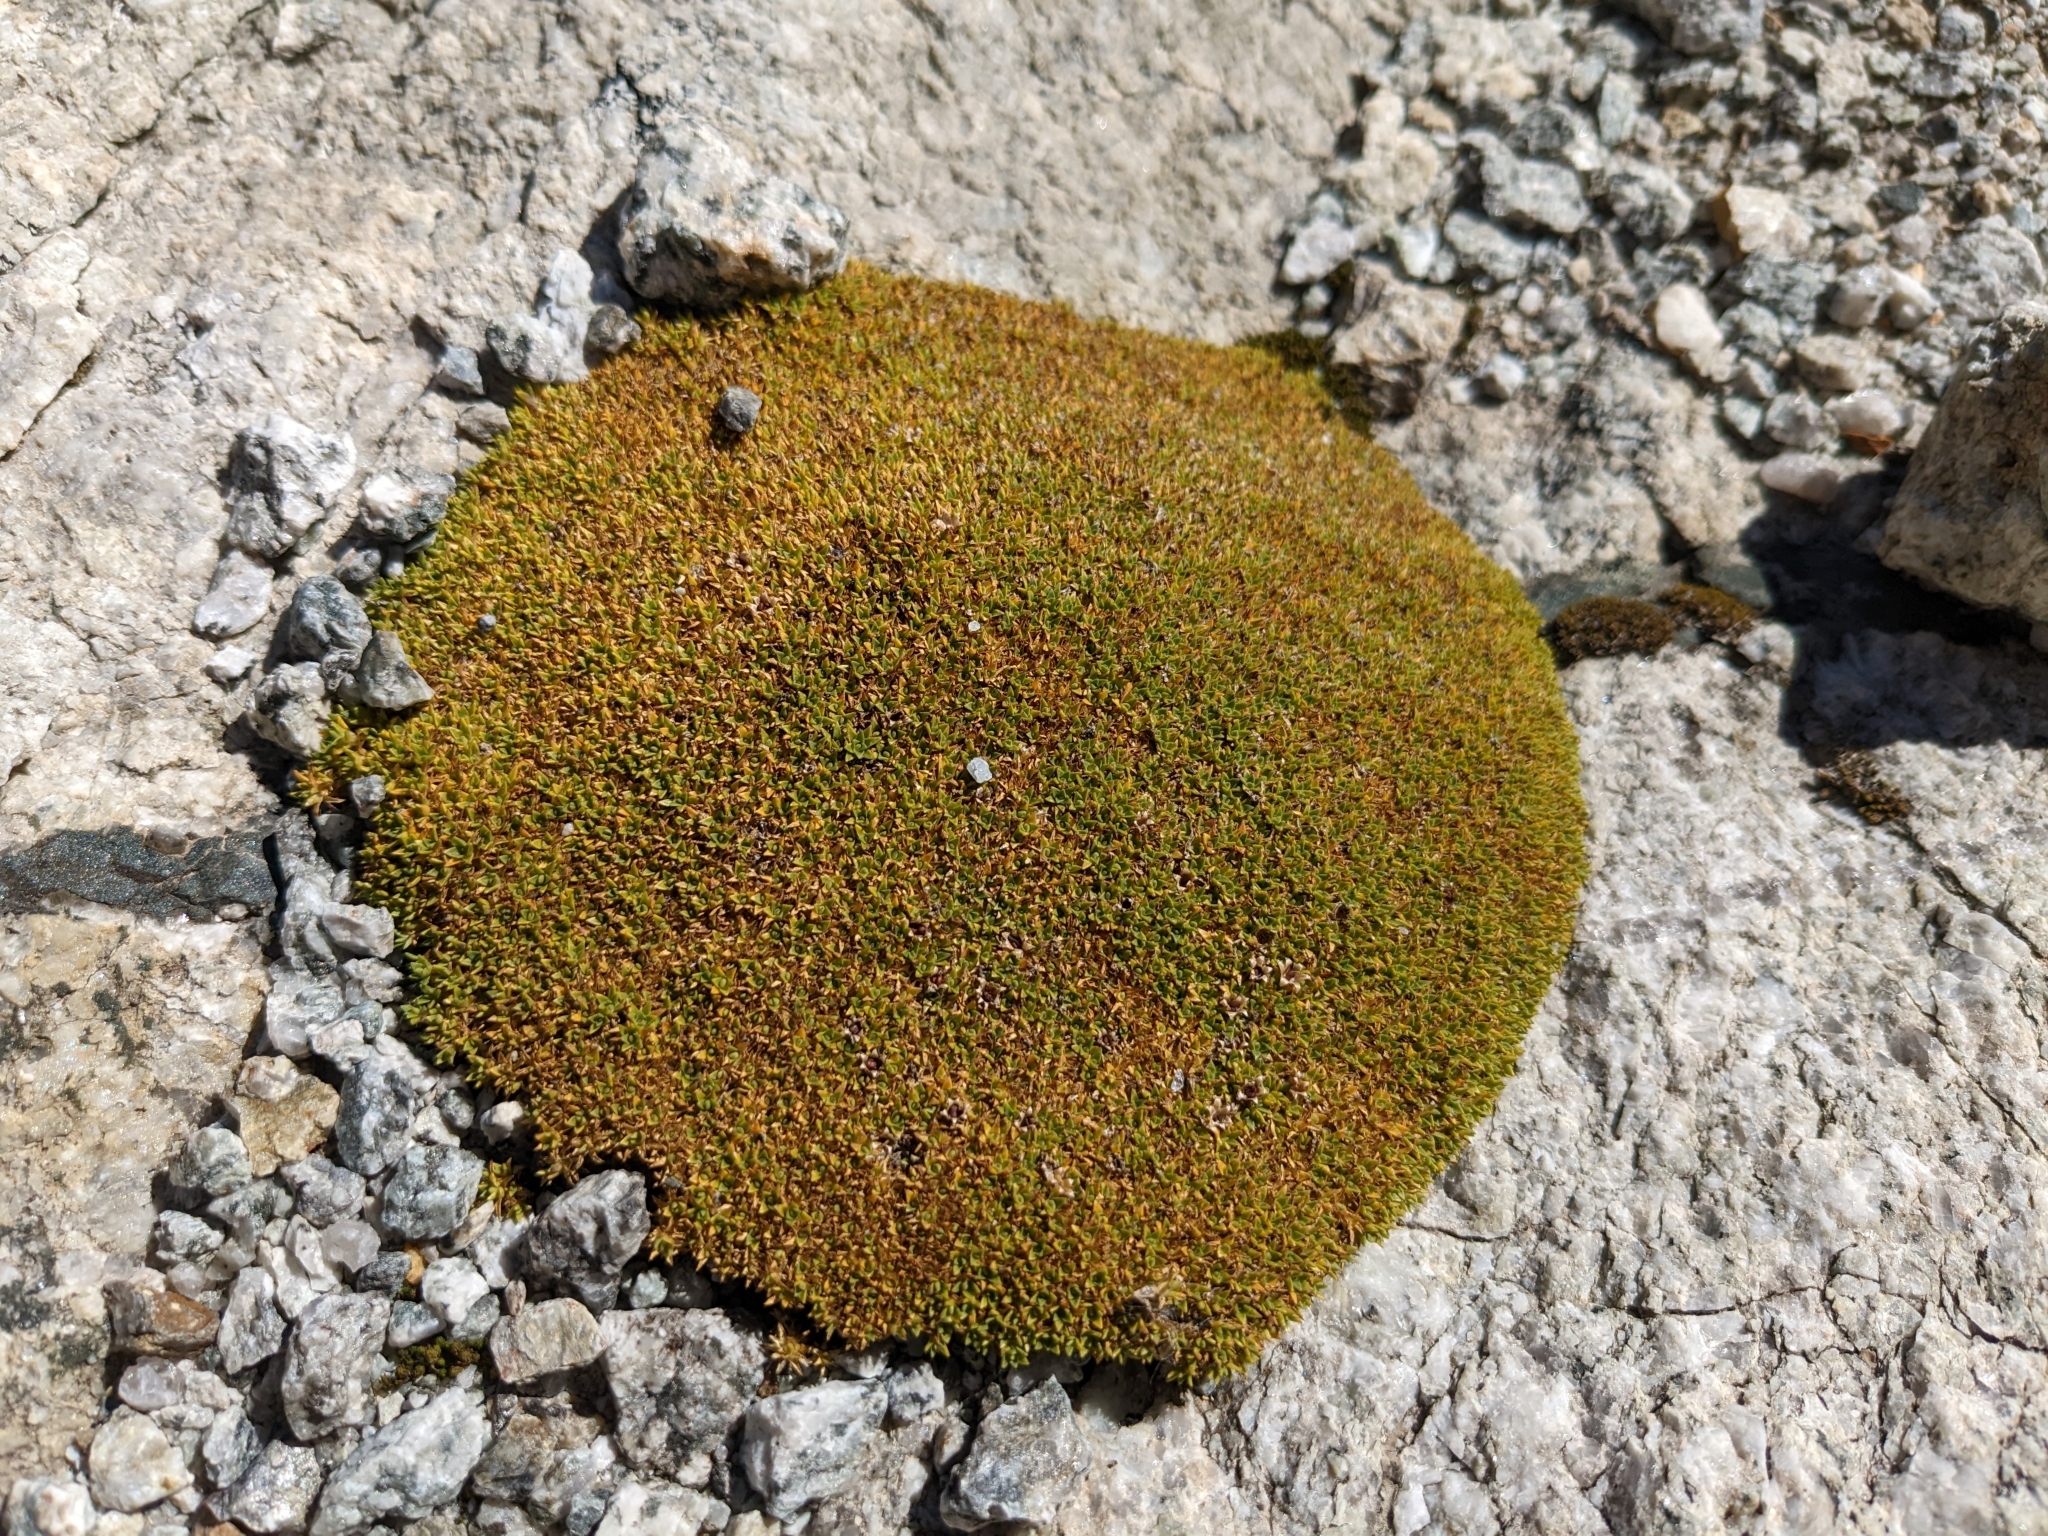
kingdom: Plantae
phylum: Tracheophyta
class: Magnoliopsida
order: Caryophyllales
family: Caryophyllaceae
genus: Silene
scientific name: Silene acaulis
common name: Moss campion
